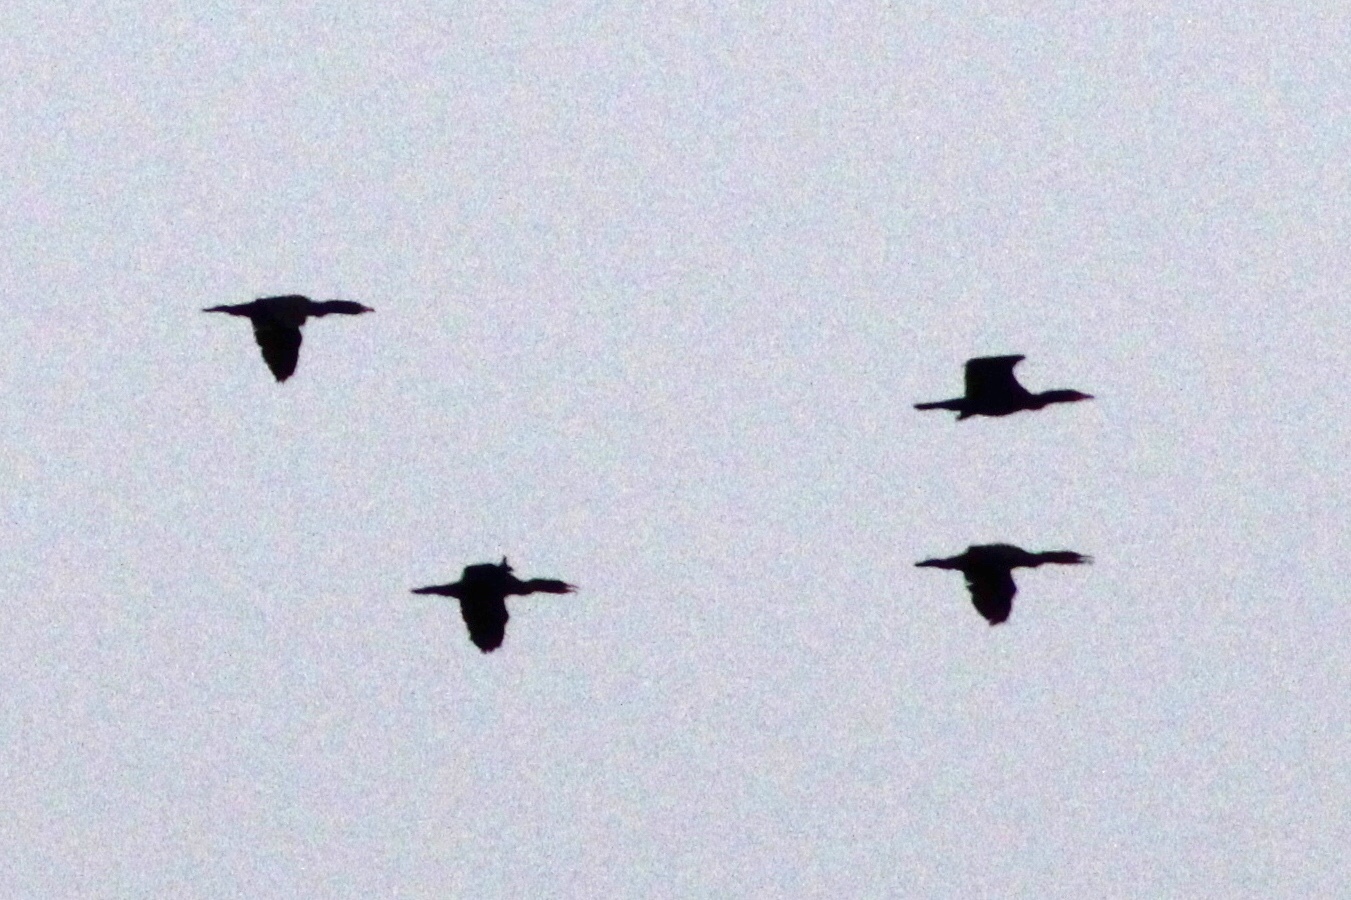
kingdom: Animalia
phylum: Chordata
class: Aves
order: Suliformes
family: Phalacrocoracidae
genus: Phalacrocorax
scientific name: Phalacrocorax auritus
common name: Double-crested cormorant
